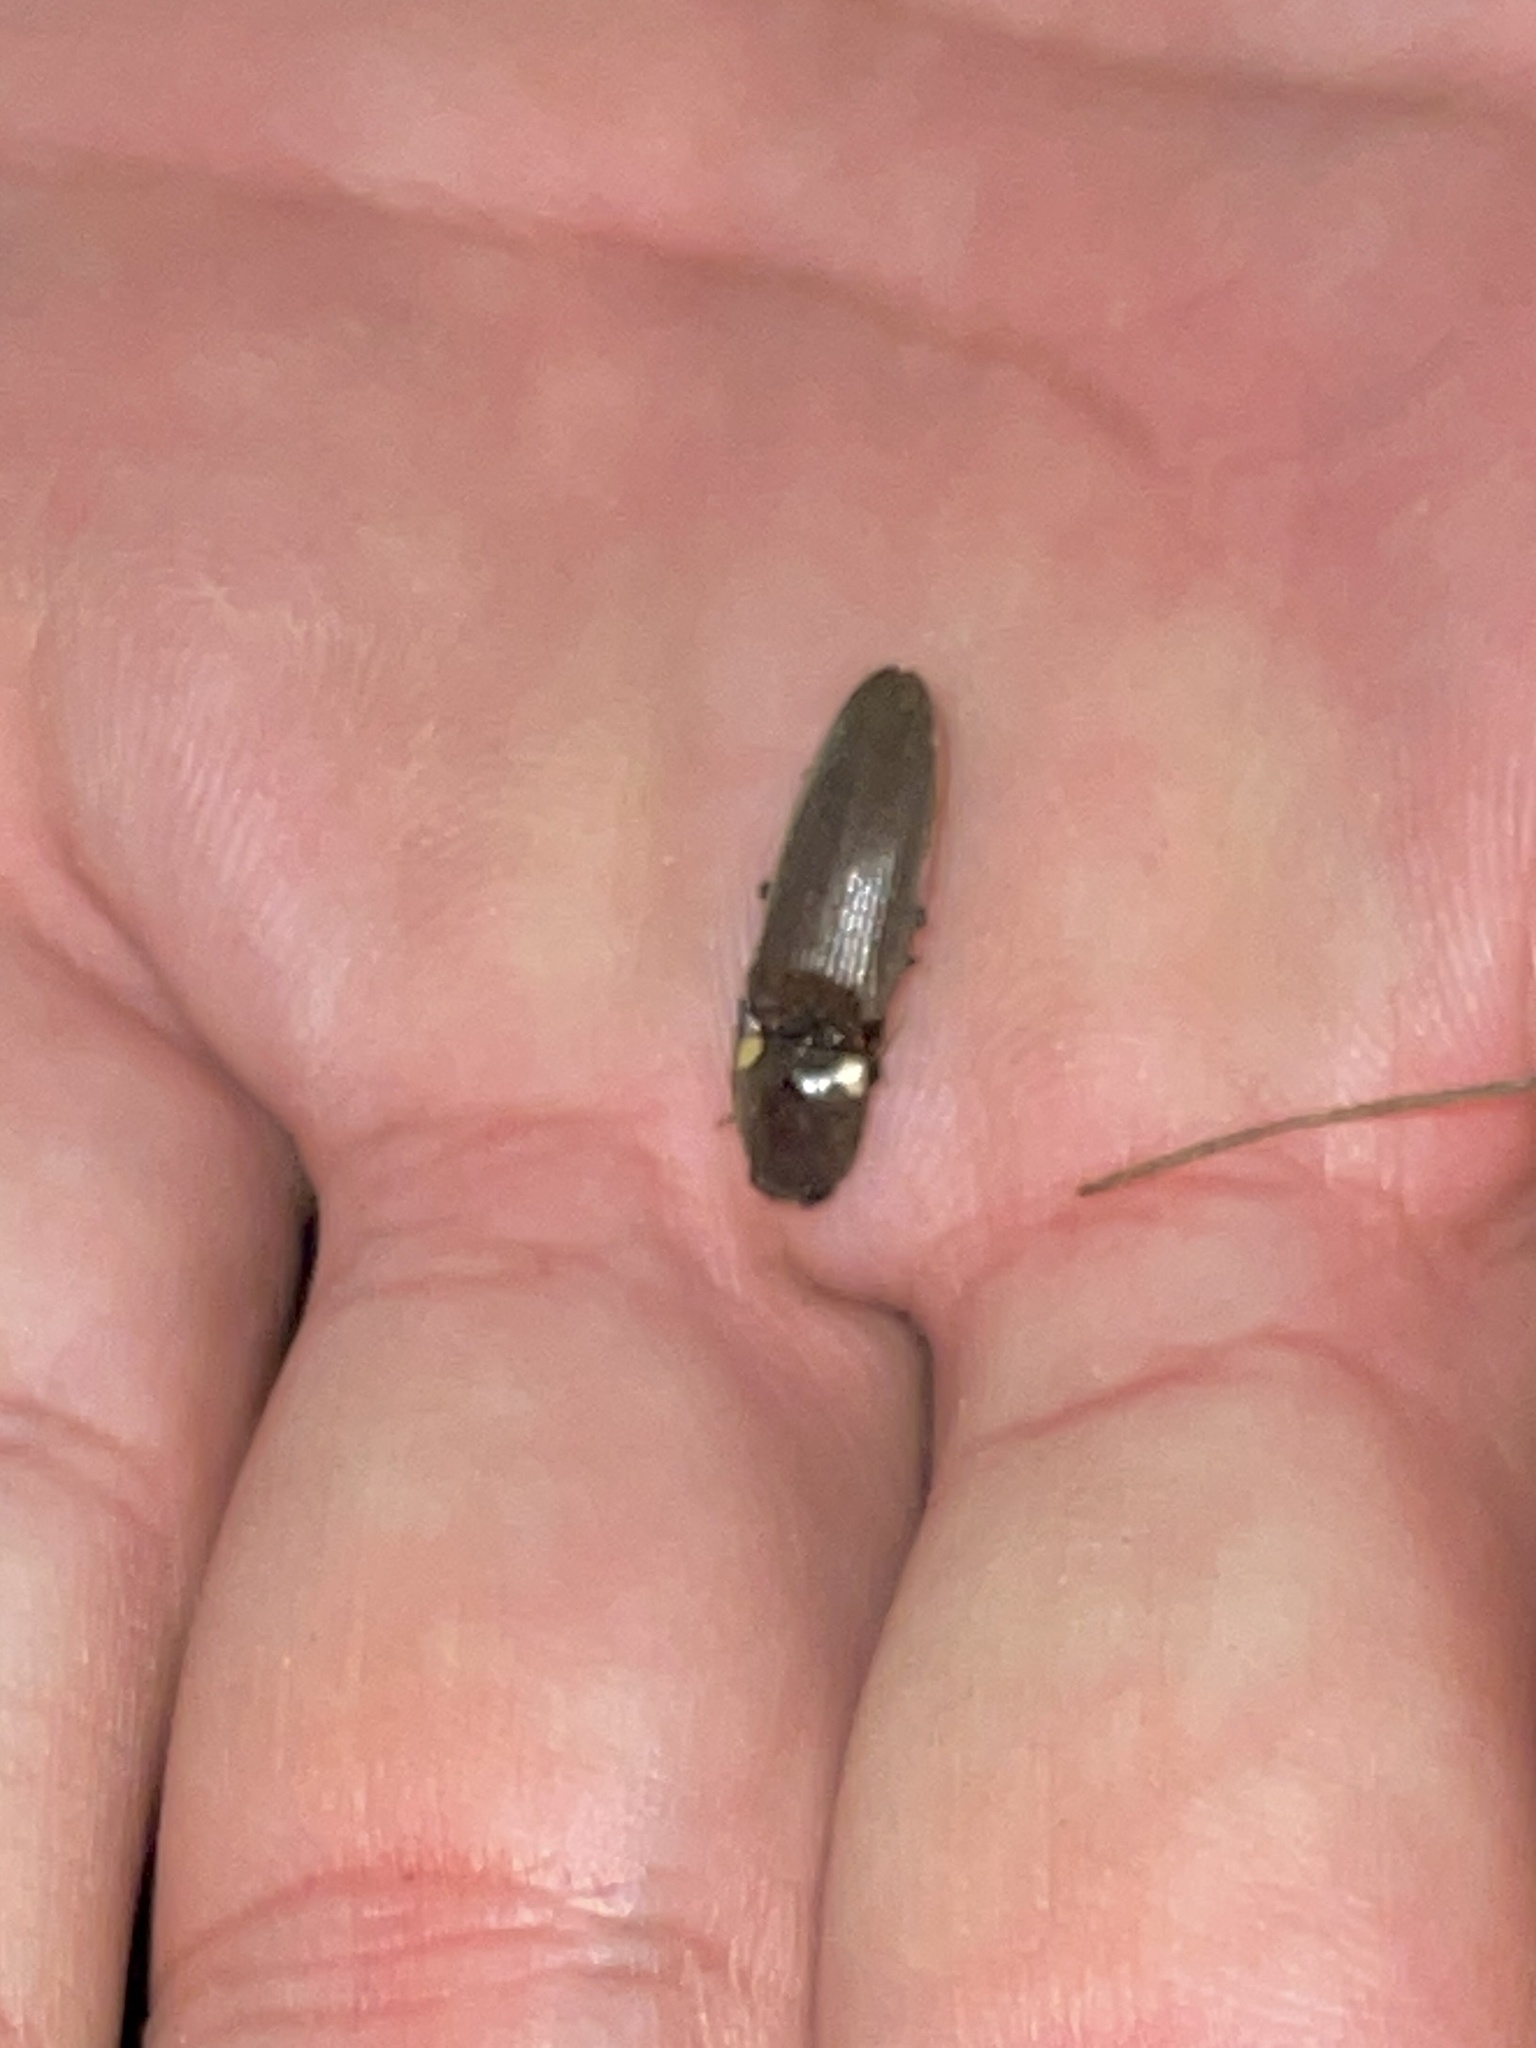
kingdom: Animalia
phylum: Arthropoda
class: Insecta
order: Coleoptera
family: Elateridae
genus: Deilelater
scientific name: Deilelater
